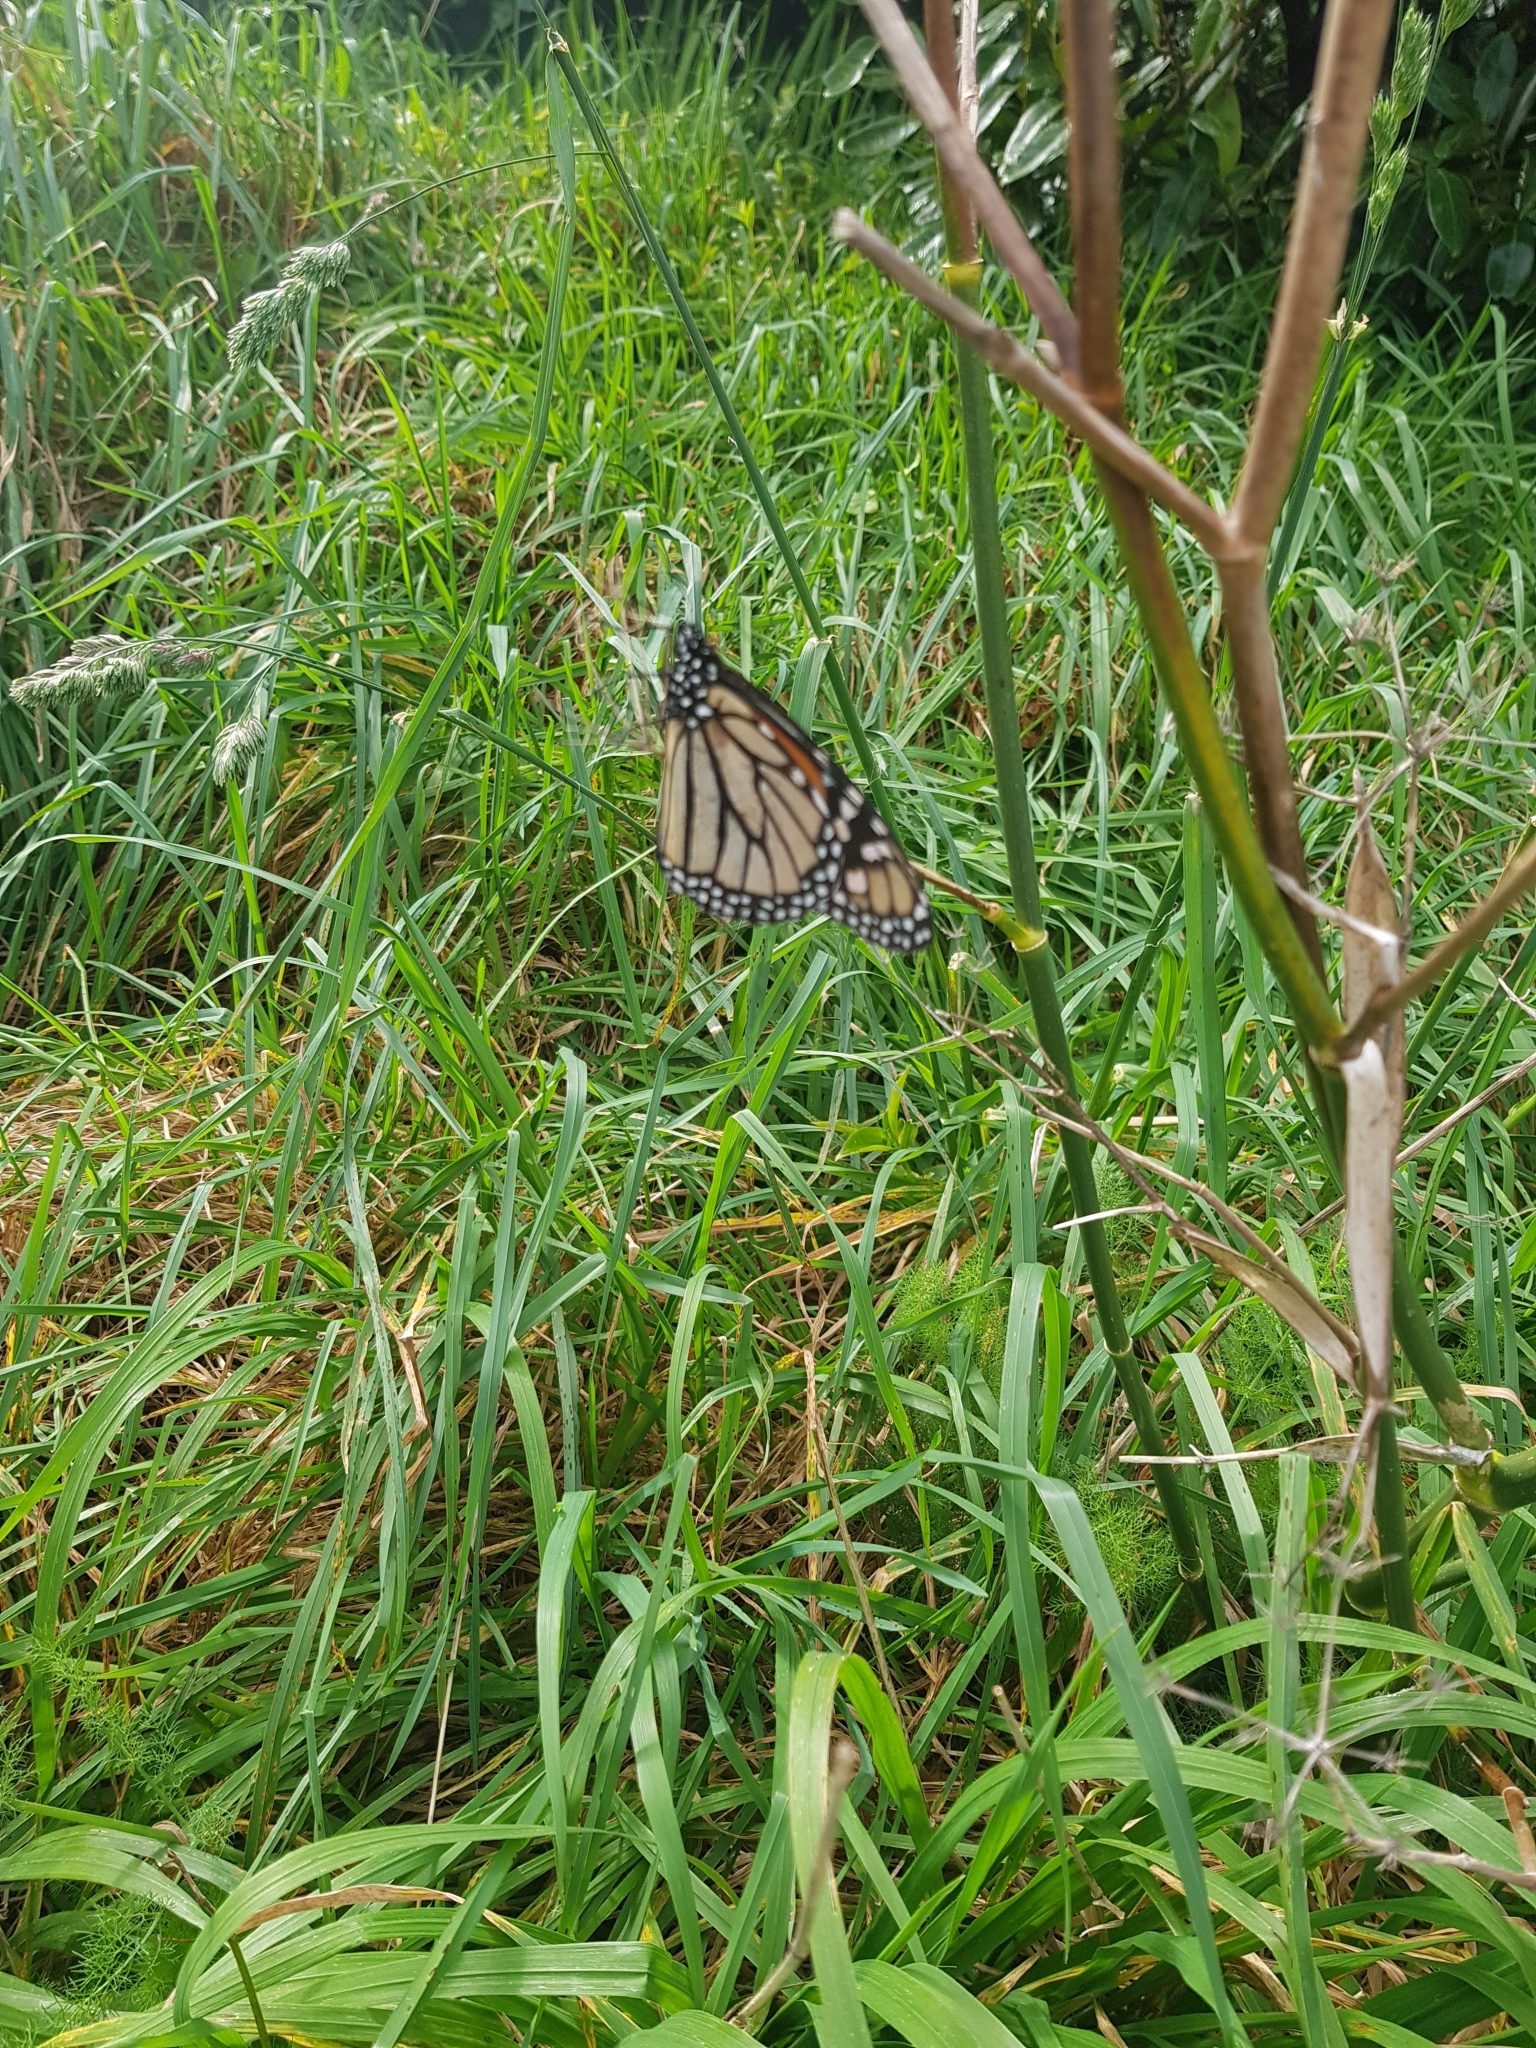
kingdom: Animalia
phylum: Arthropoda
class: Insecta
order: Lepidoptera
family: Nymphalidae
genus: Danaus
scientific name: Danaus plexippus
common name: Monarch
